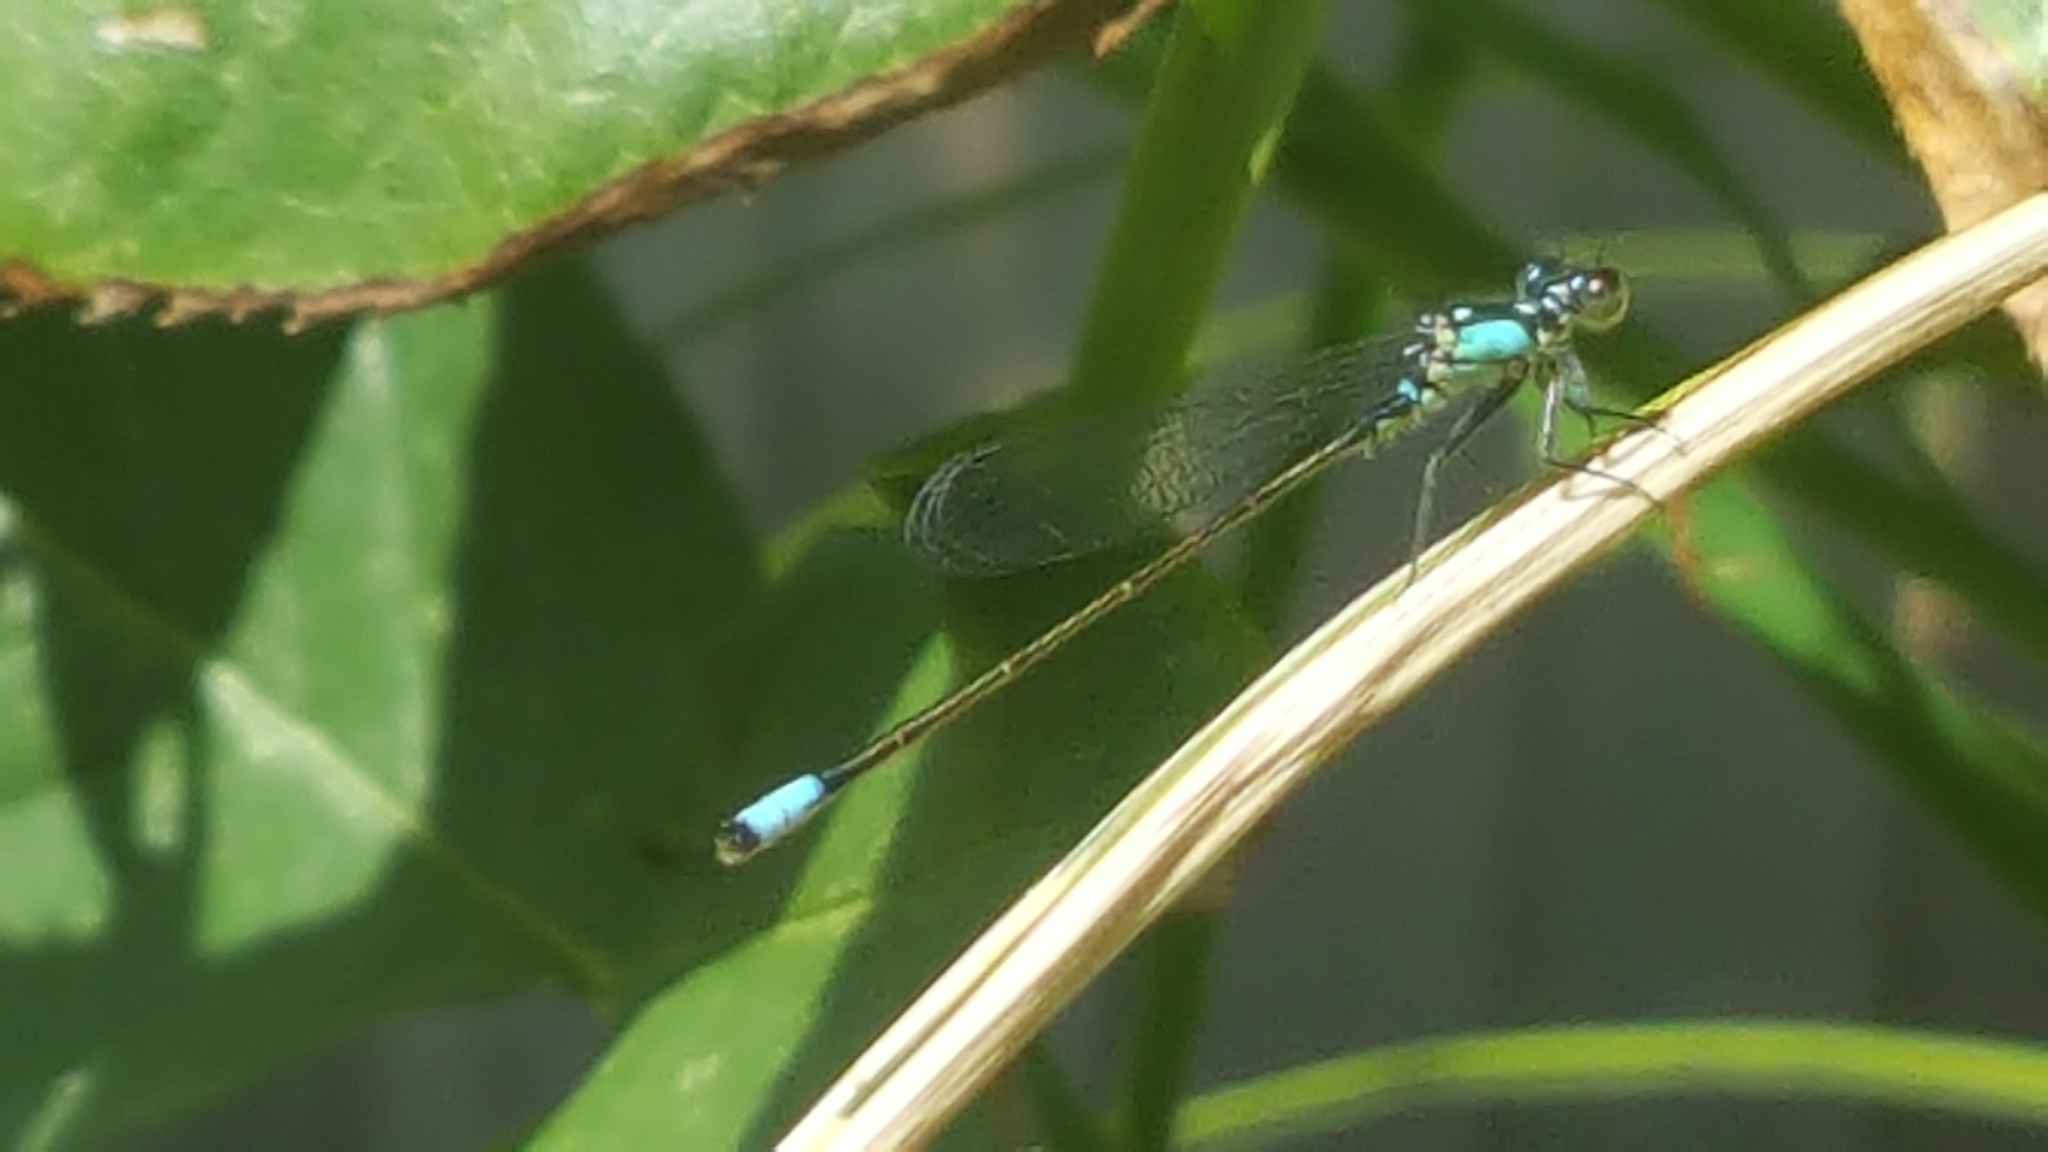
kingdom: Animalia
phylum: Arthropoda
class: Insecta
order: Odonata
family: Coenagrionidae
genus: Ischnura
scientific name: Ischnura cervula
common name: Pacific forktail
